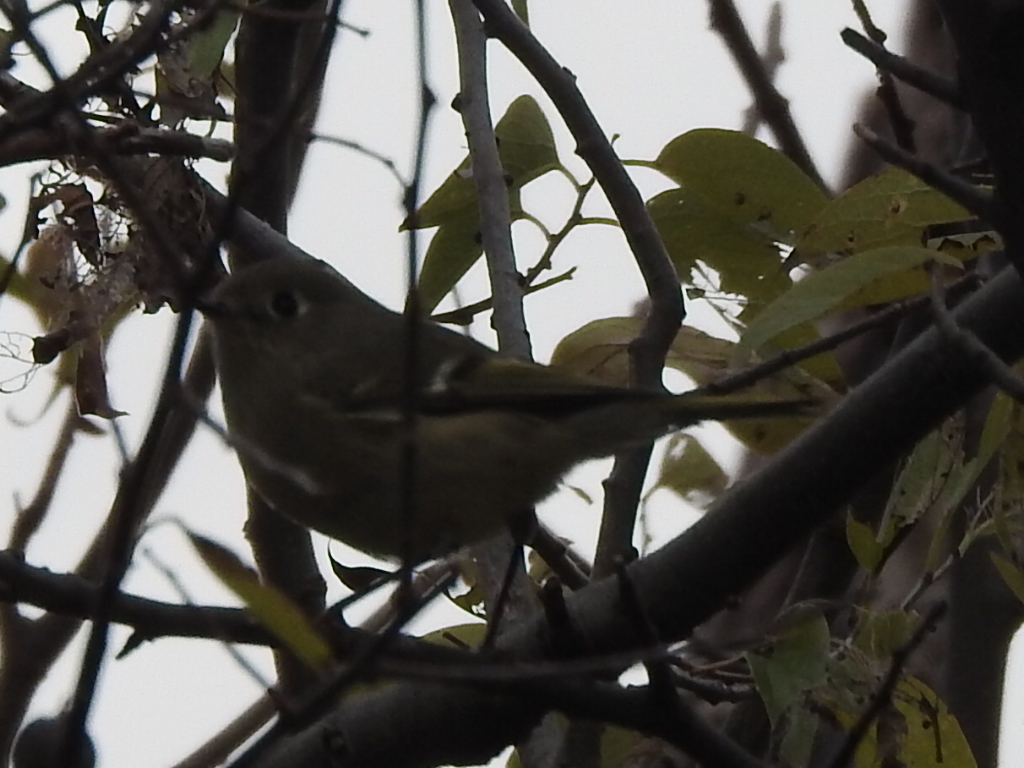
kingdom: Animalia
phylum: Chordata
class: Aves
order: Passeriformes
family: Regulidae
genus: Regulus
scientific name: Regulus calendula
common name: Ruby-crowned kinglet
